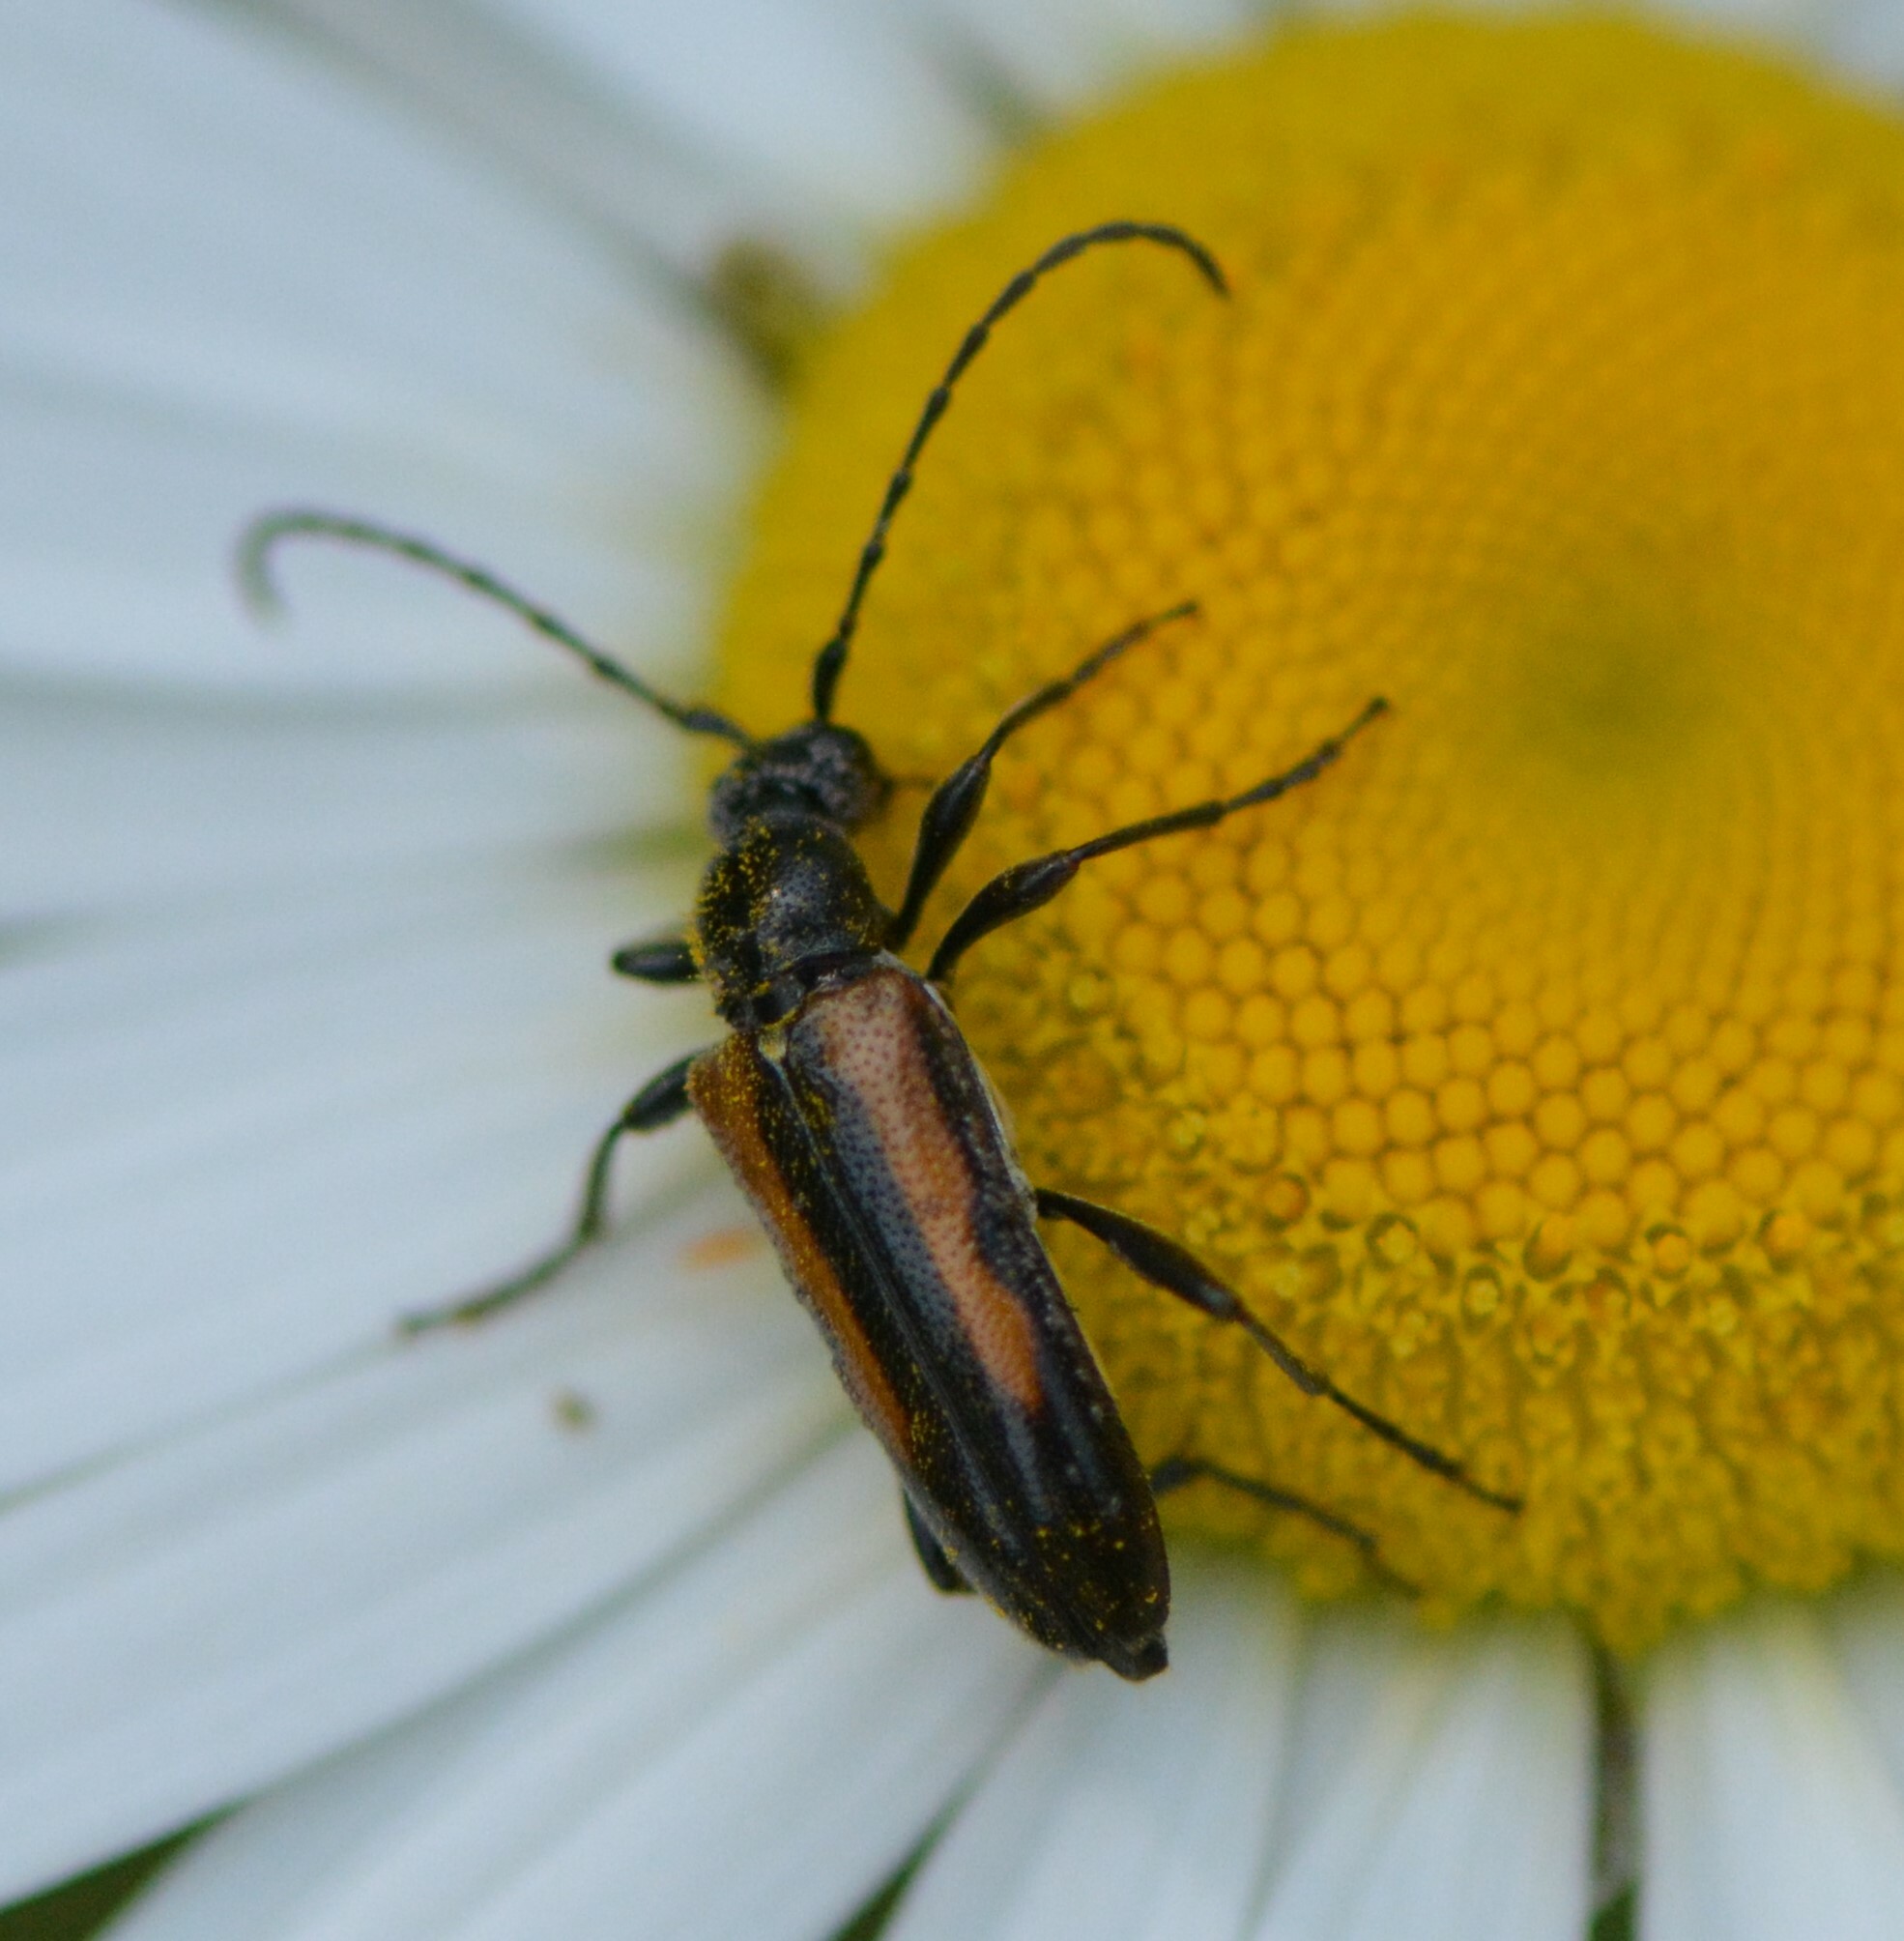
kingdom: Animalia
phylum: Arthropoda
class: Insecta
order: Coleoptera
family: Cerambycidae
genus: Strangalepta
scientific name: Strangalepta abbreviata
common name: Strangalepta flower longhorn beetle
